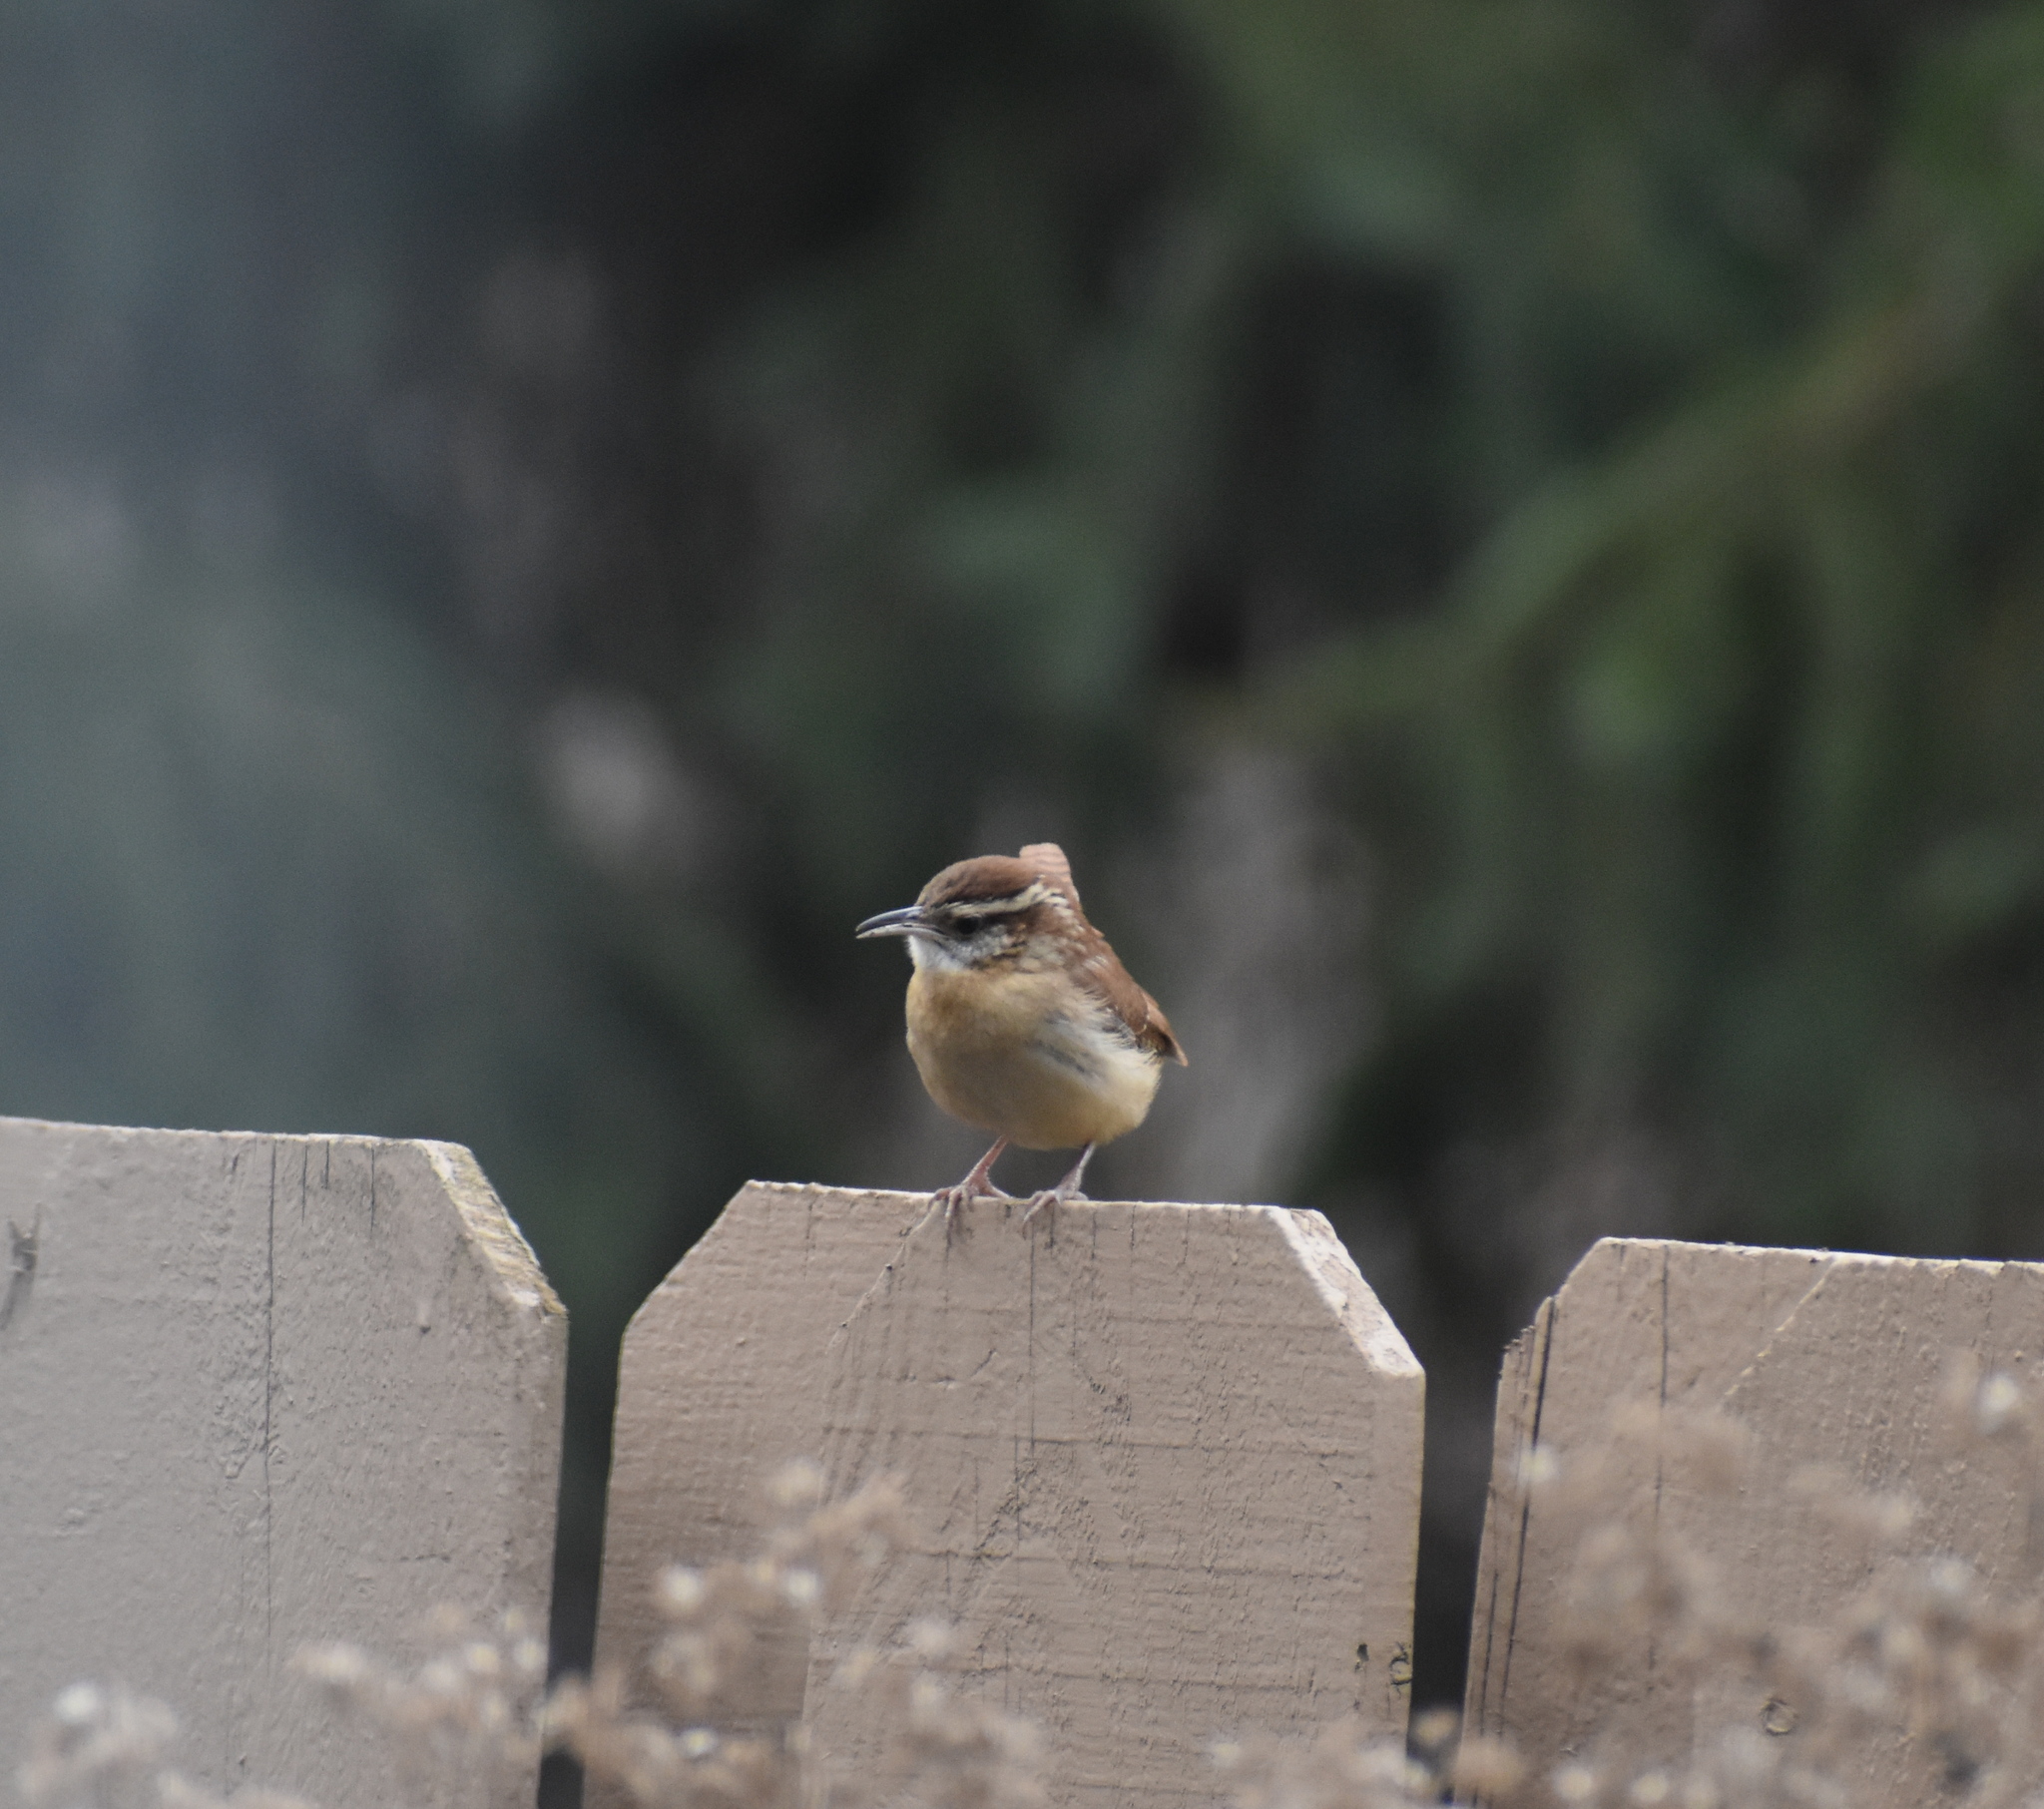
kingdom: Animalia
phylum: Chordata
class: Aves
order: Passeriformes
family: Troglodytidae
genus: Thryothorus
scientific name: Thryothorus ludovicianus
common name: Carolina wren
